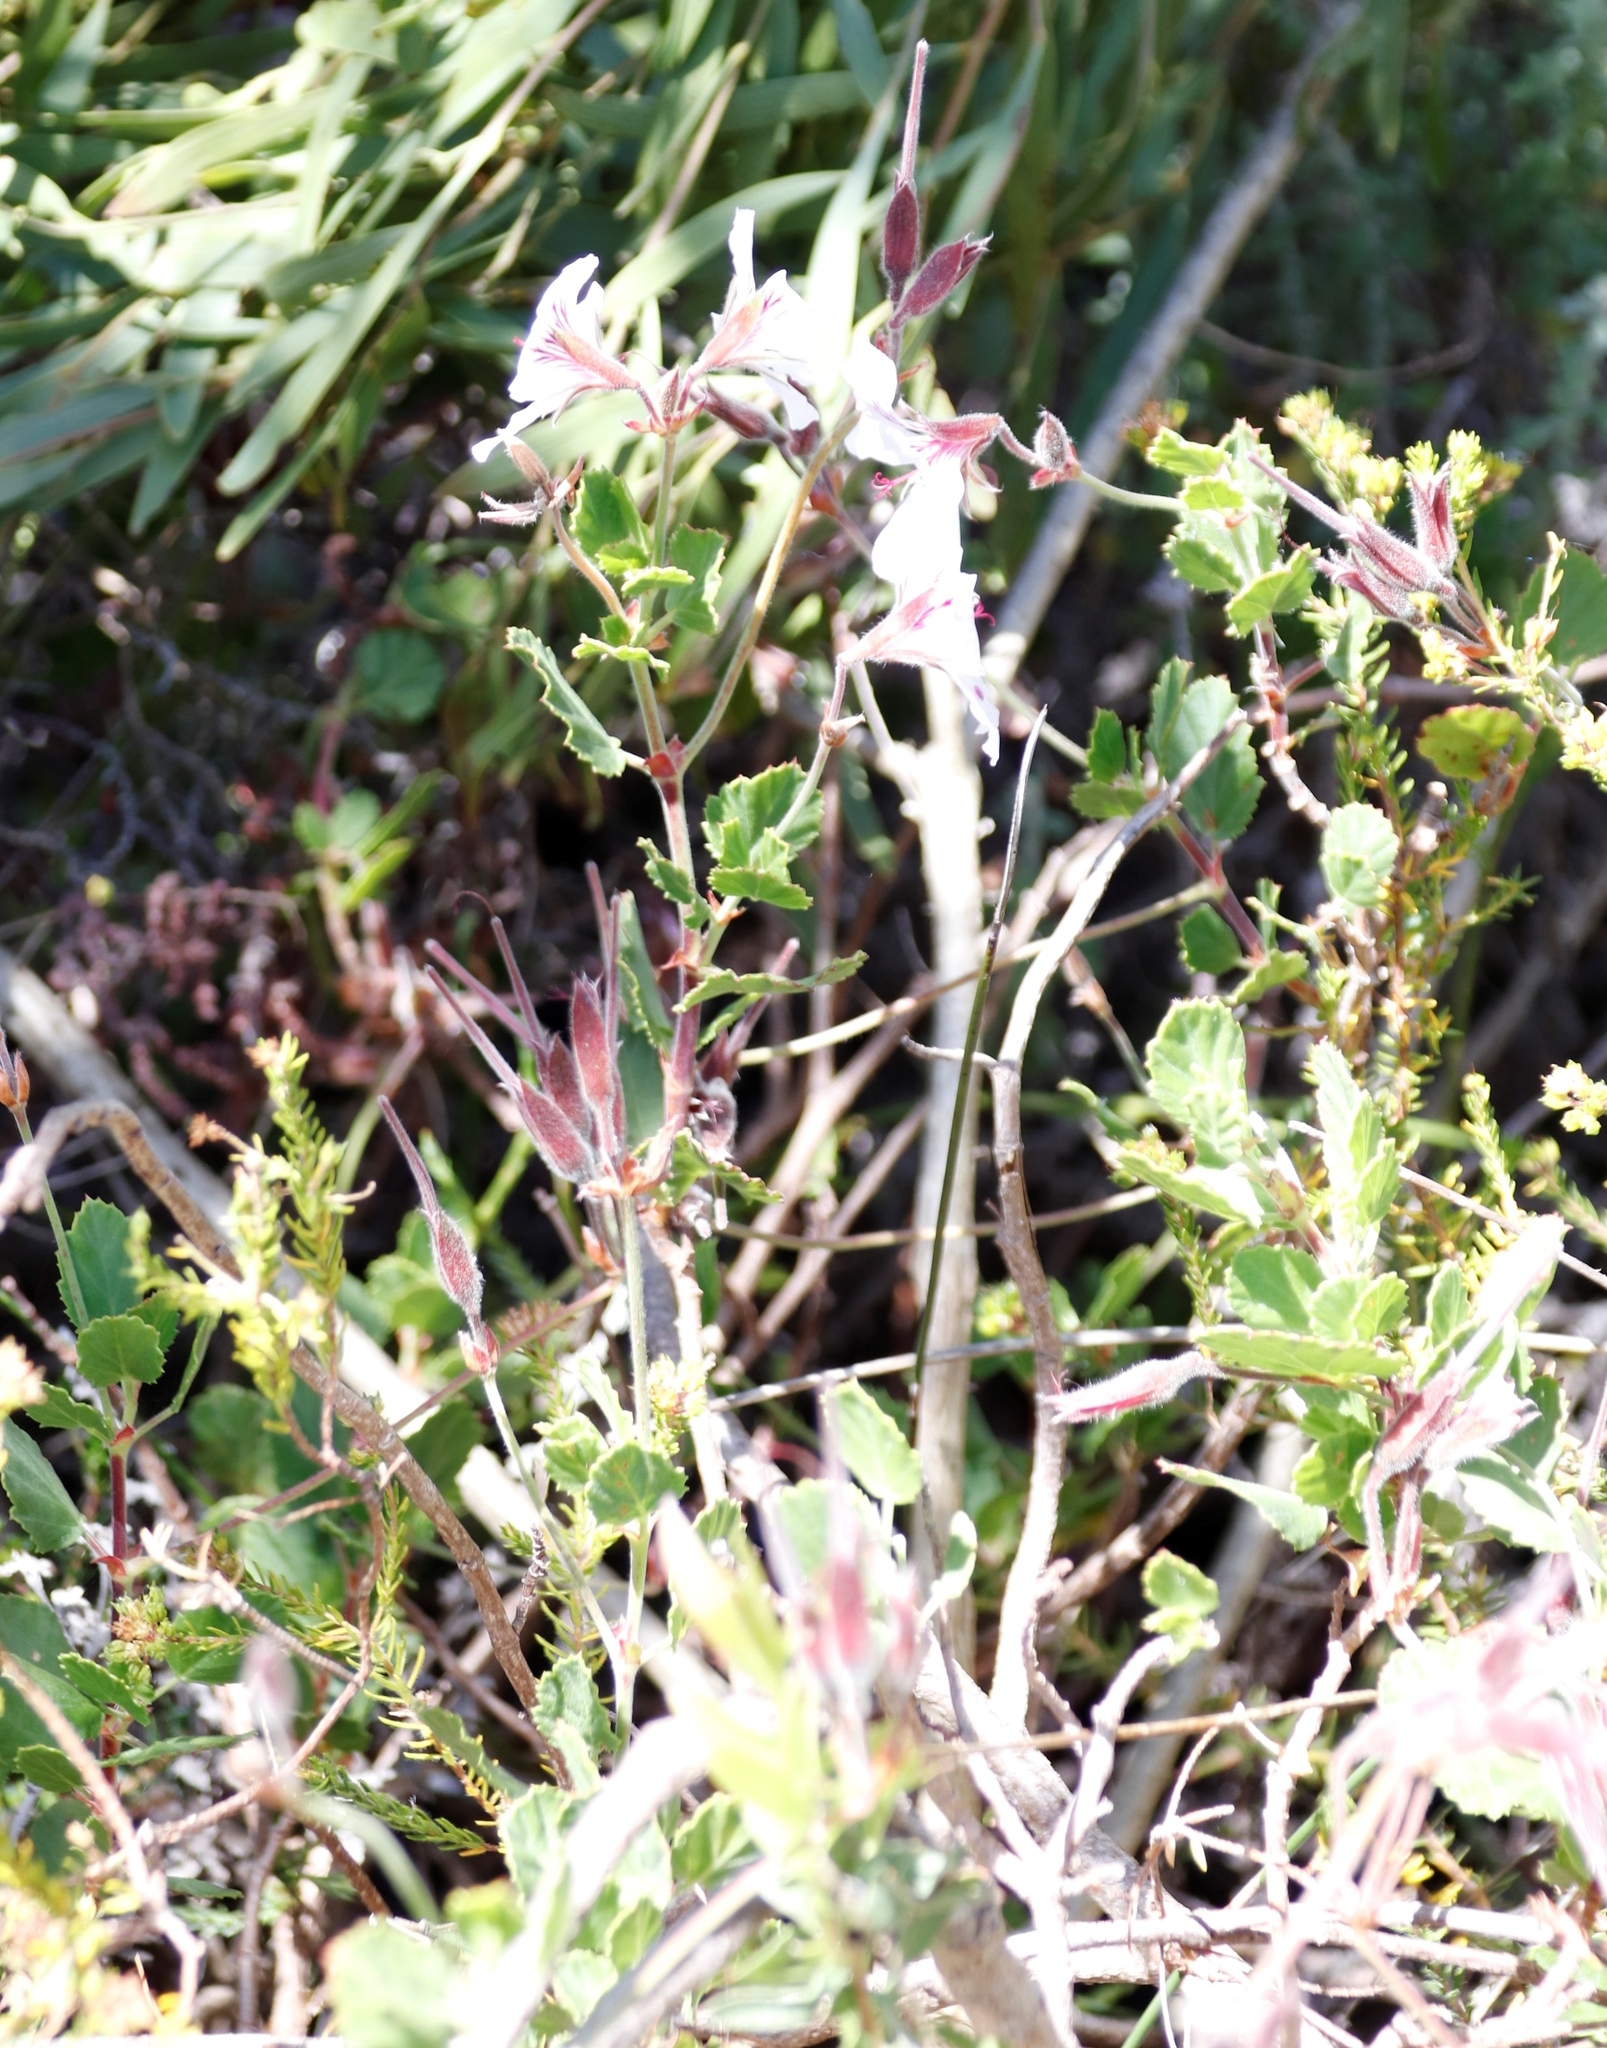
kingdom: Plantae
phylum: Tracheophyta
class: Magnoliopsida
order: Geraniales
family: Geraniaceae
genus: Pelargonium
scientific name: Pelargonium betulinum
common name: Birch-leaf pelargonium
